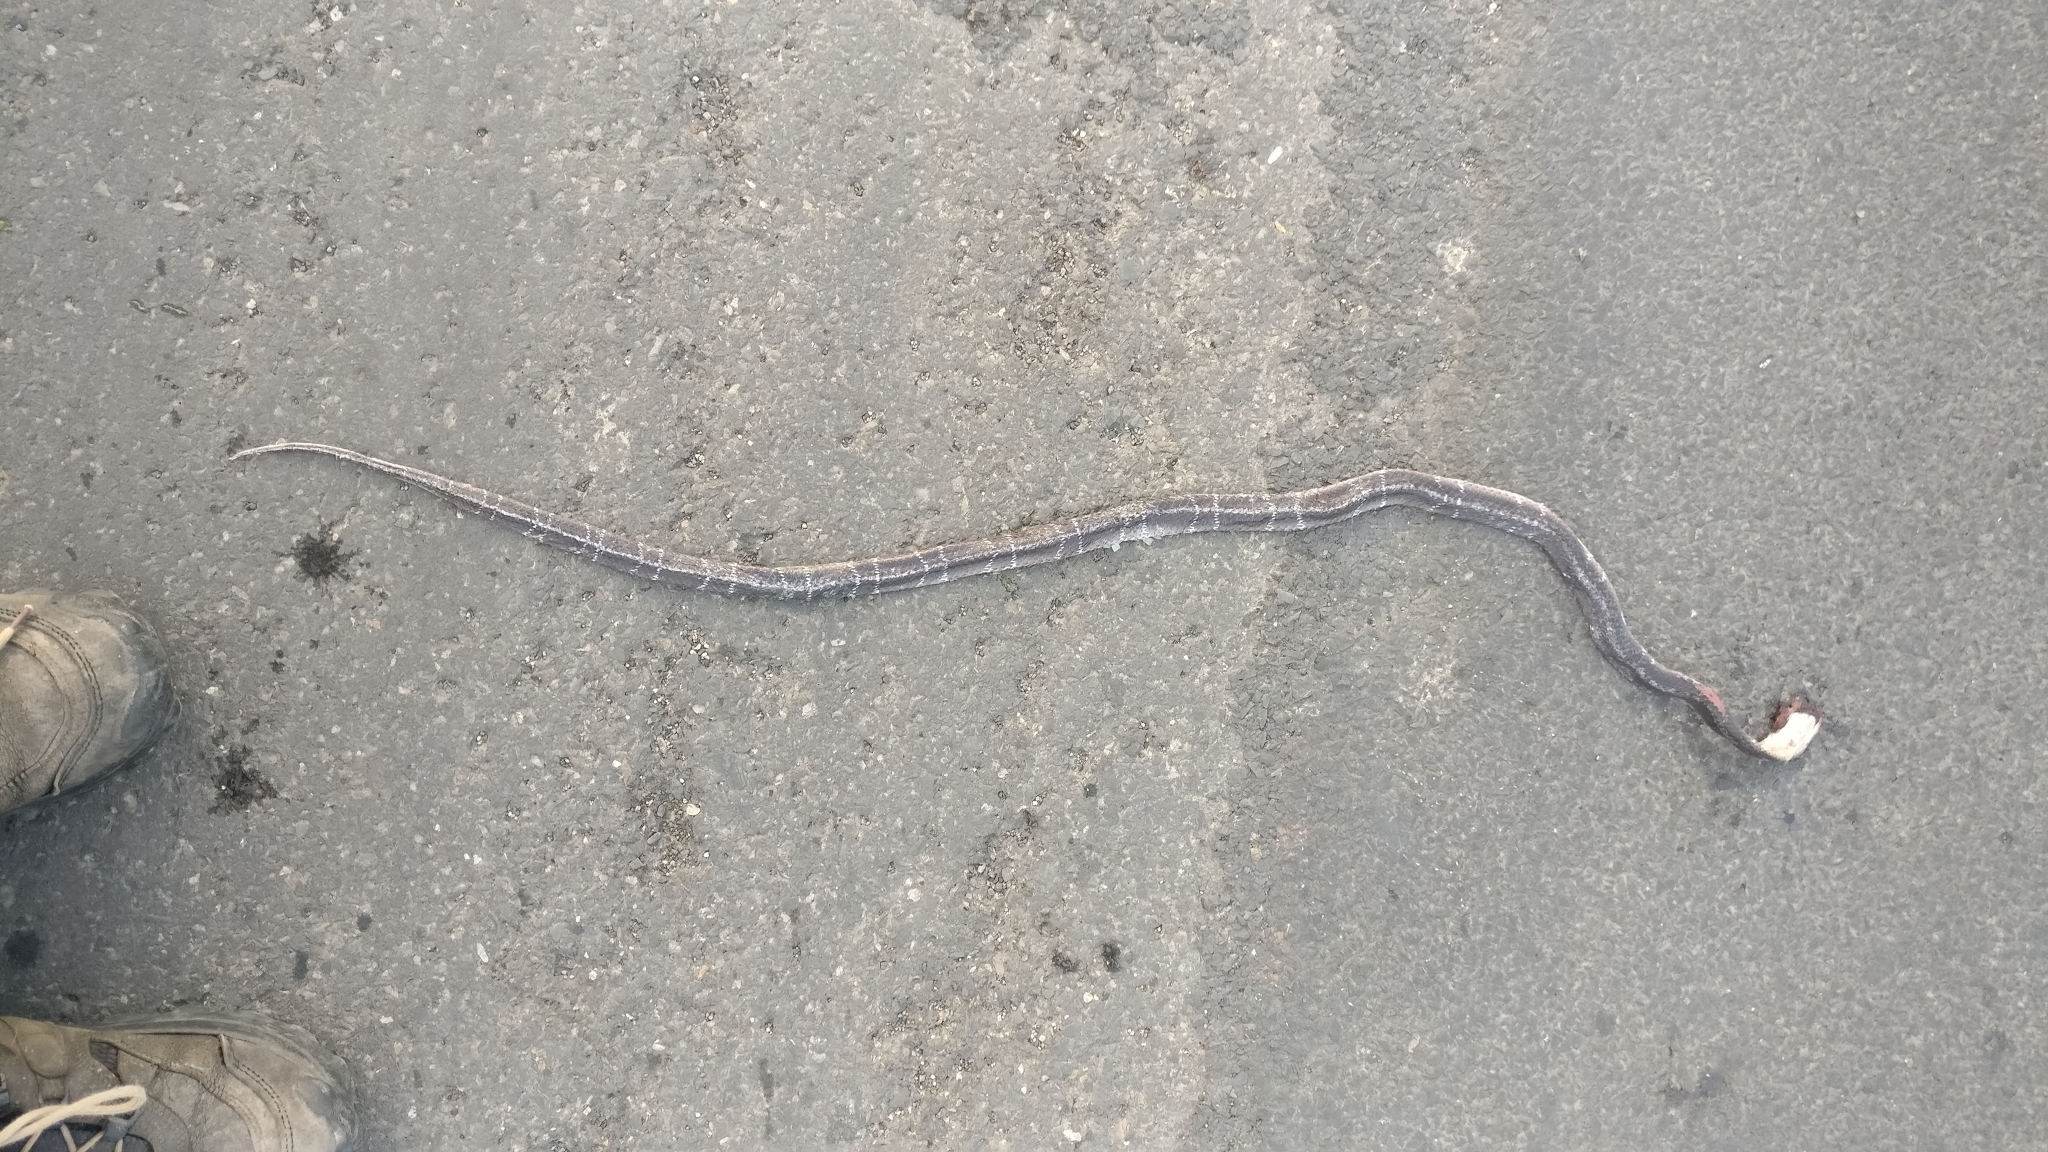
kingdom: Animalia
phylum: Chordata
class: Squamata
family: Elapidae
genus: Bungarus
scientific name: Bungarus caeruleus
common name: Common krait
